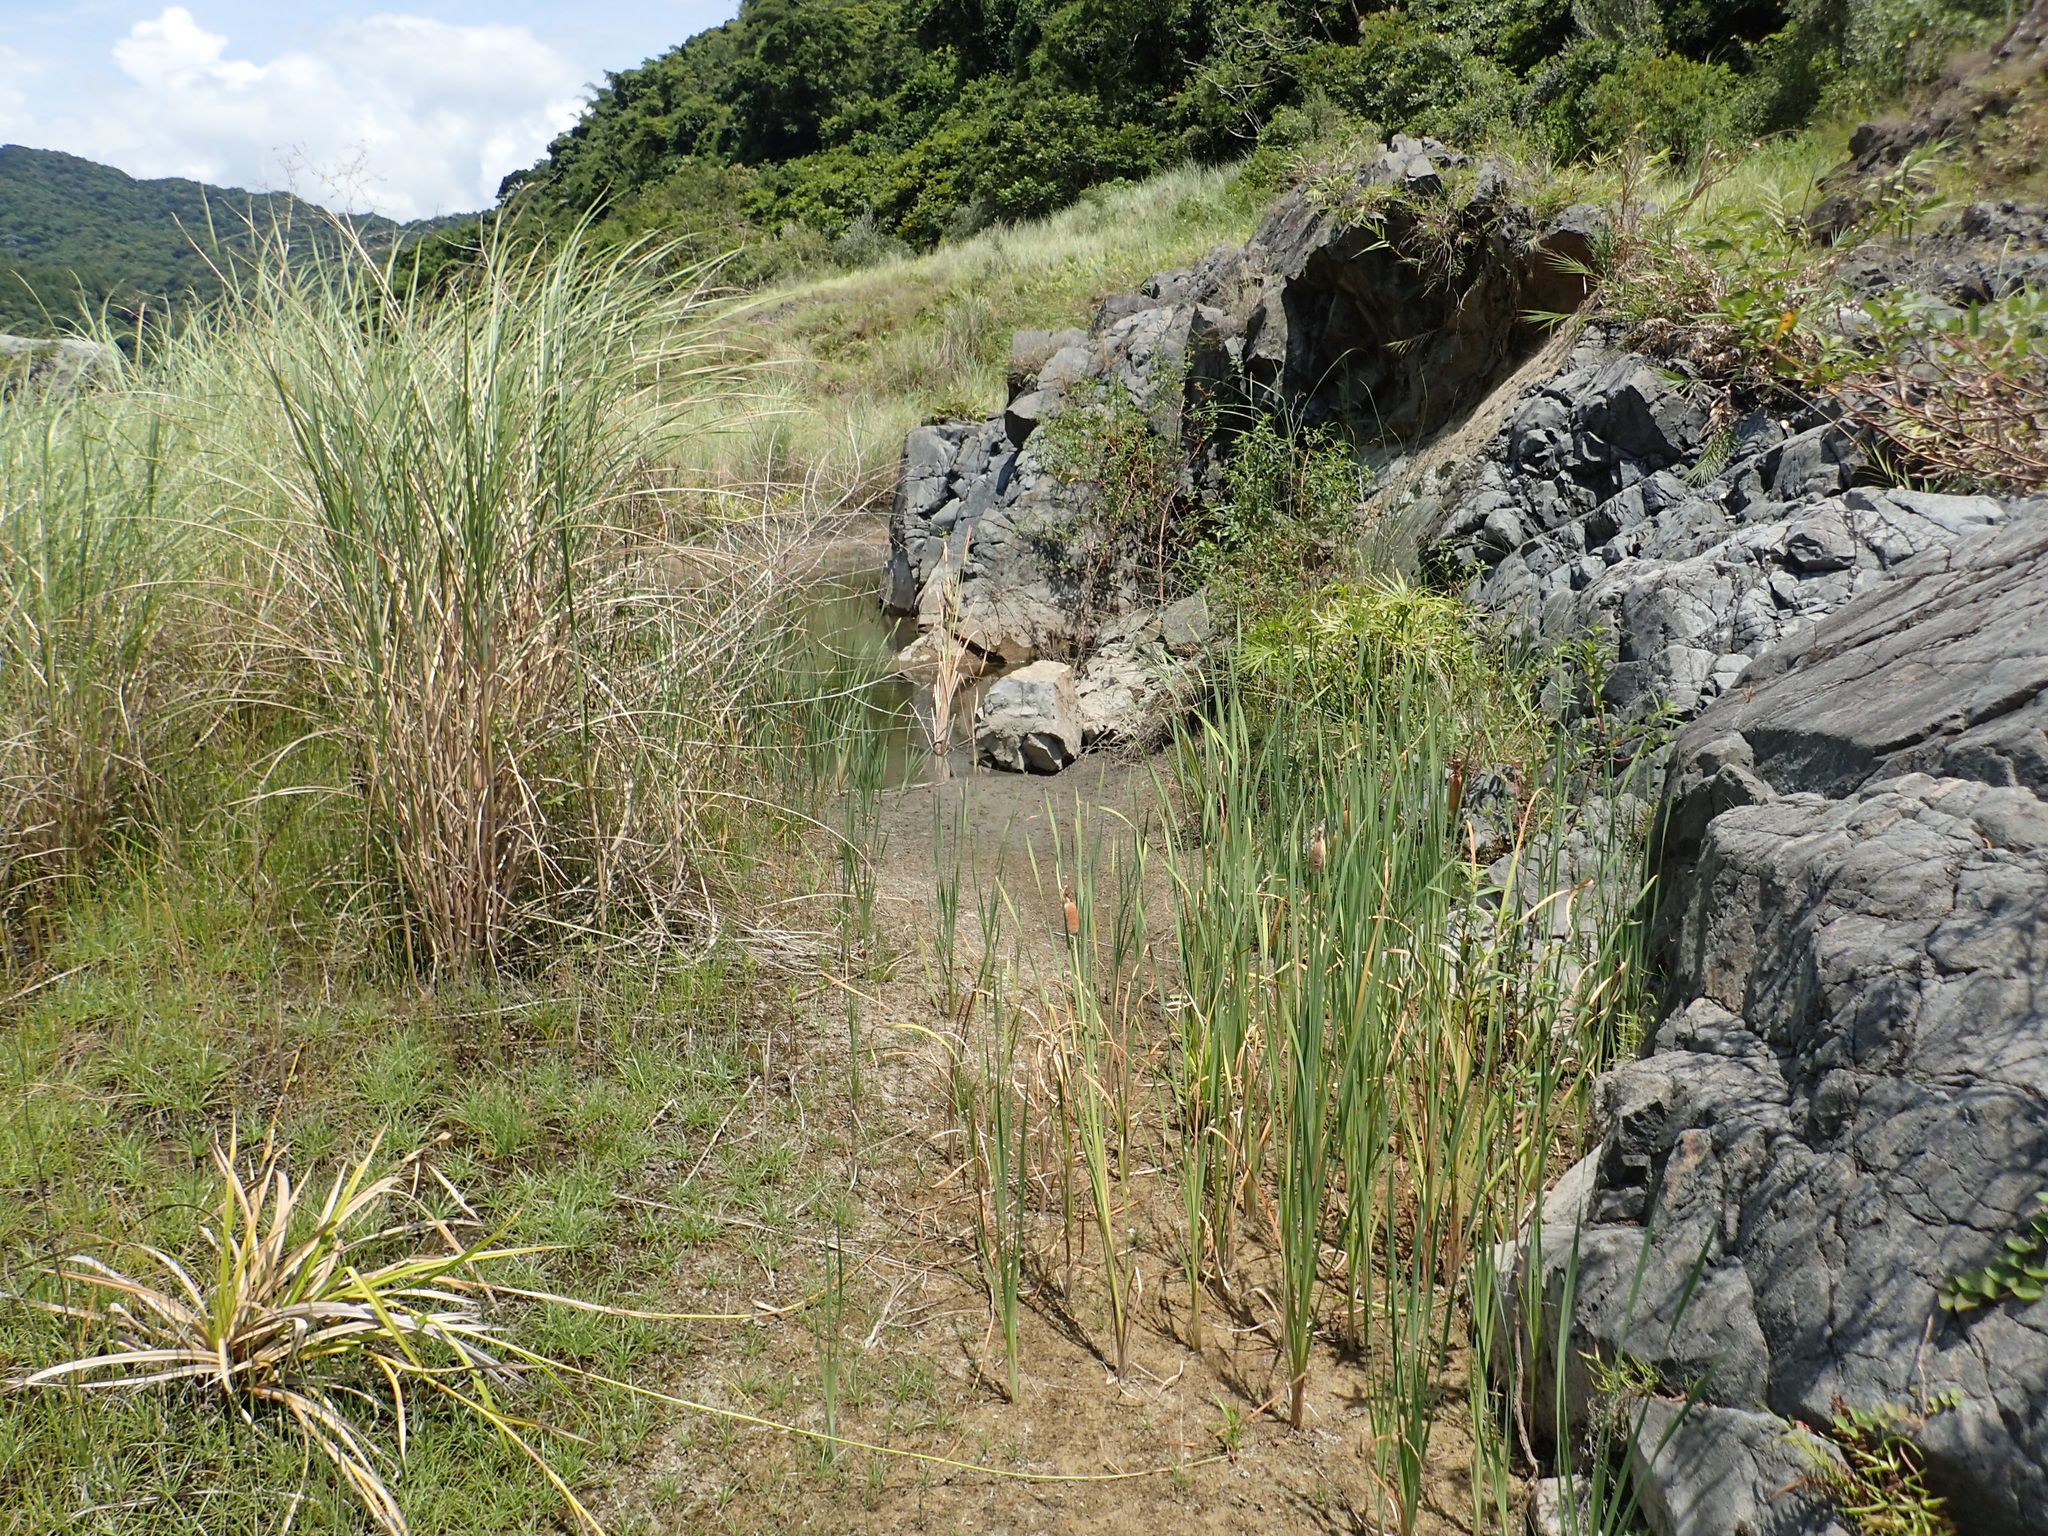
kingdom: Plantae
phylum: Tracheophyta
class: Liliopsida
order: Poales
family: Typhaceae
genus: Typha
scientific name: Typha orientalis
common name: Bullrush
